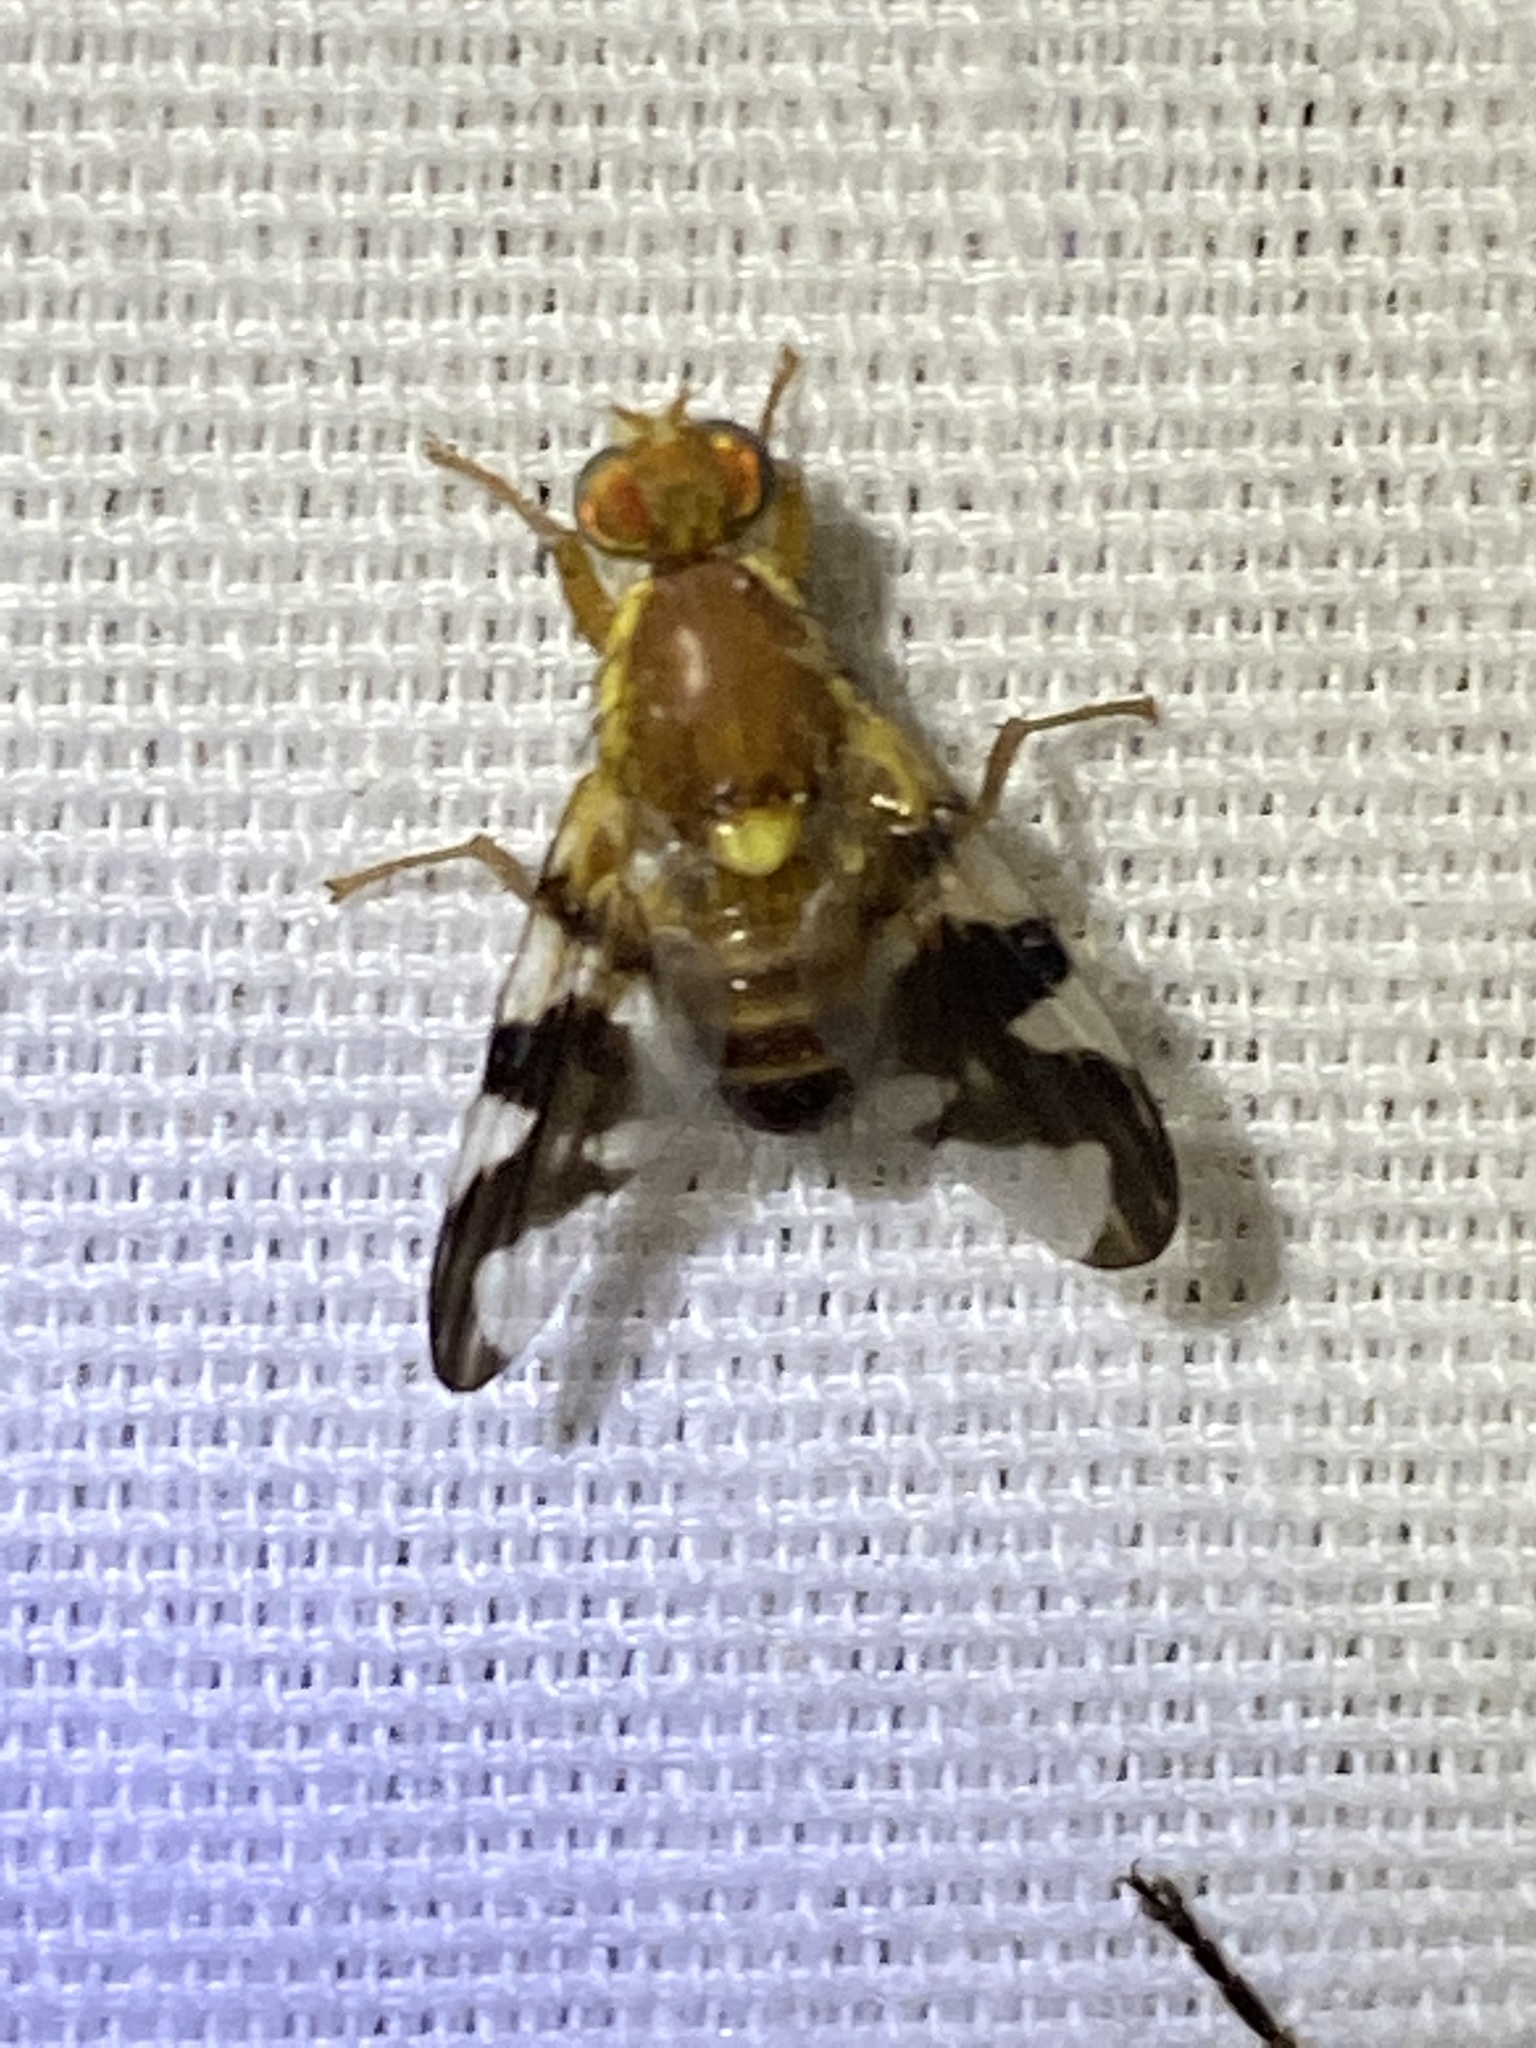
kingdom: Animalia
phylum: Arthropoda
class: Insecta
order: Diptera
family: Tephritidae
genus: Rhagoletis
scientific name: Rhagoletis suavis
